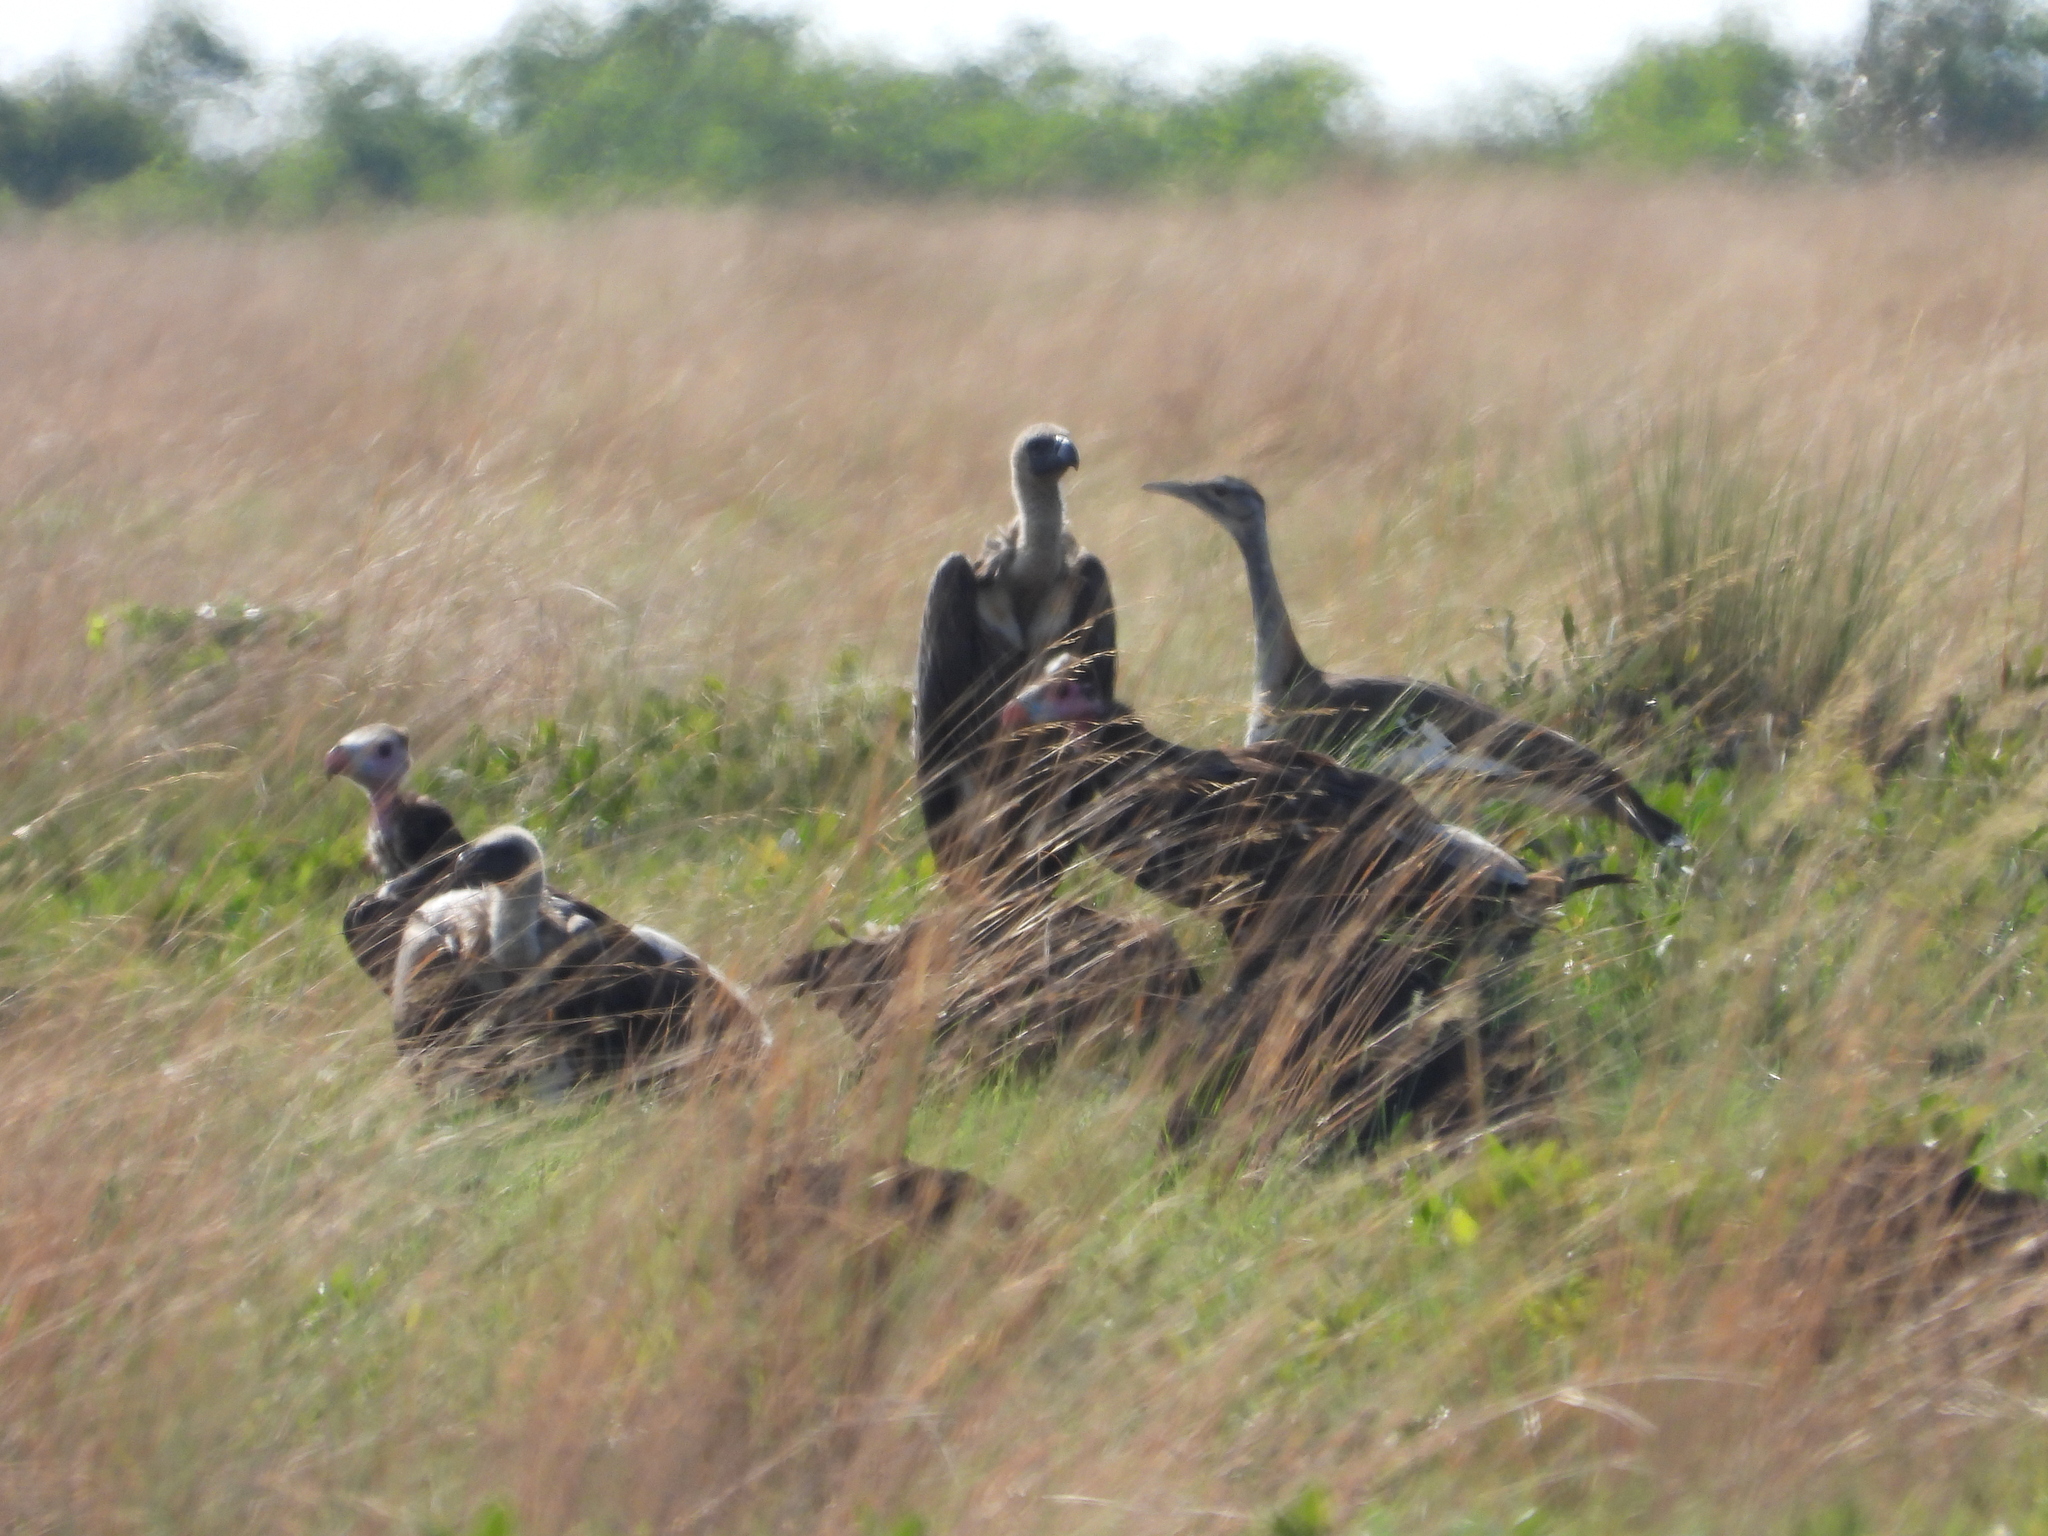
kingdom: Animalia
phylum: Chordata
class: Aves
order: Accipitriformes
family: Accipitridae
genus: Torgos
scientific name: Torgos tracheliotos
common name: Lappet-faced vulture
